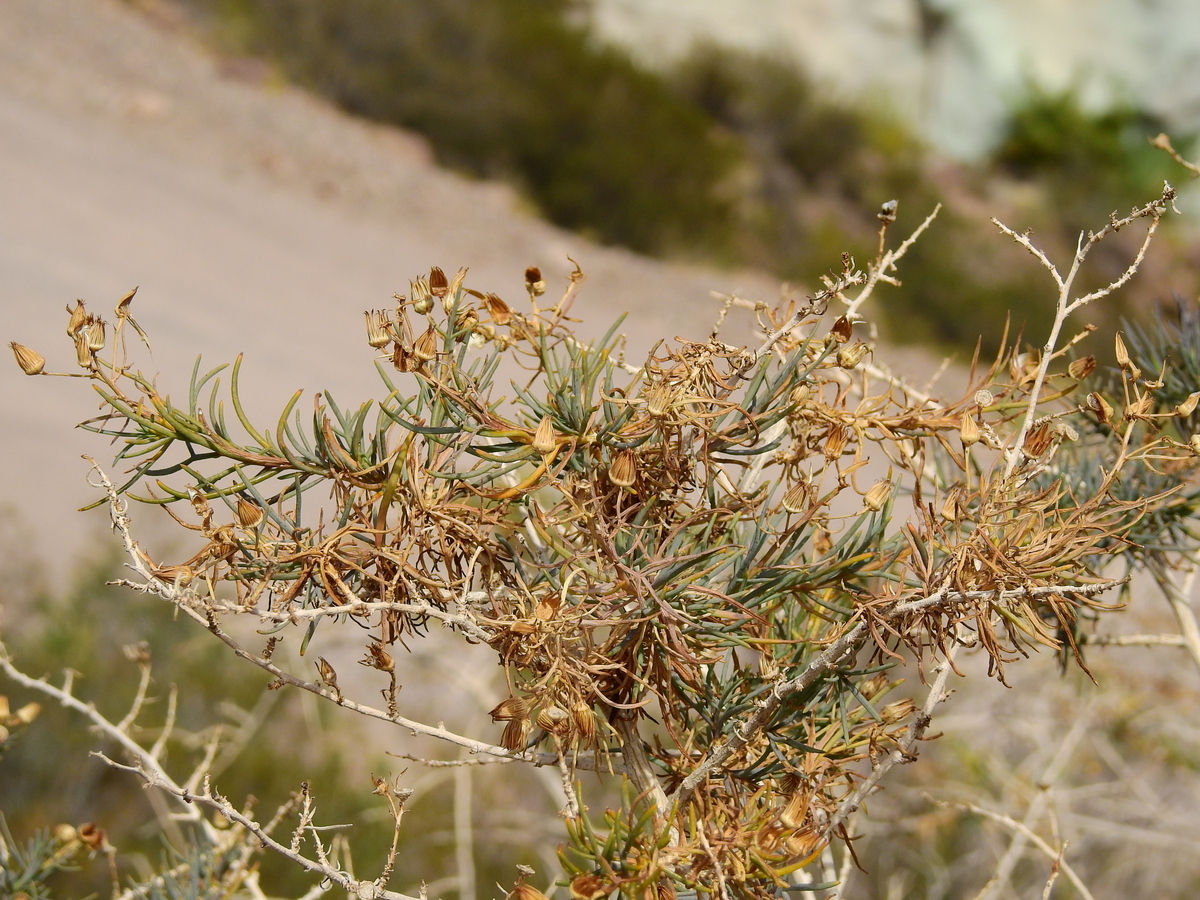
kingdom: Plantae
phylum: Tracheophyta
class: Magnoliopsida
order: Asterales
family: Asteraceae
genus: Senecio
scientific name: Senecio subulatus
